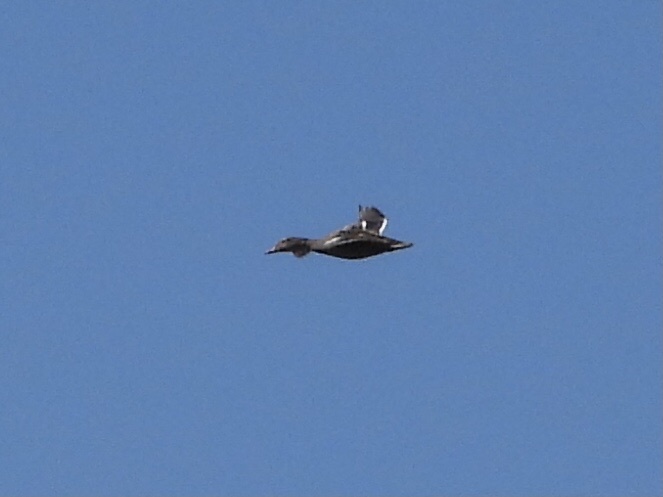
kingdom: Animalia
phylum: Chordata
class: Aves
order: Anseriformes
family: Anatidae
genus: Anas
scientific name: Anas platyrhynchos
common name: Mallard
